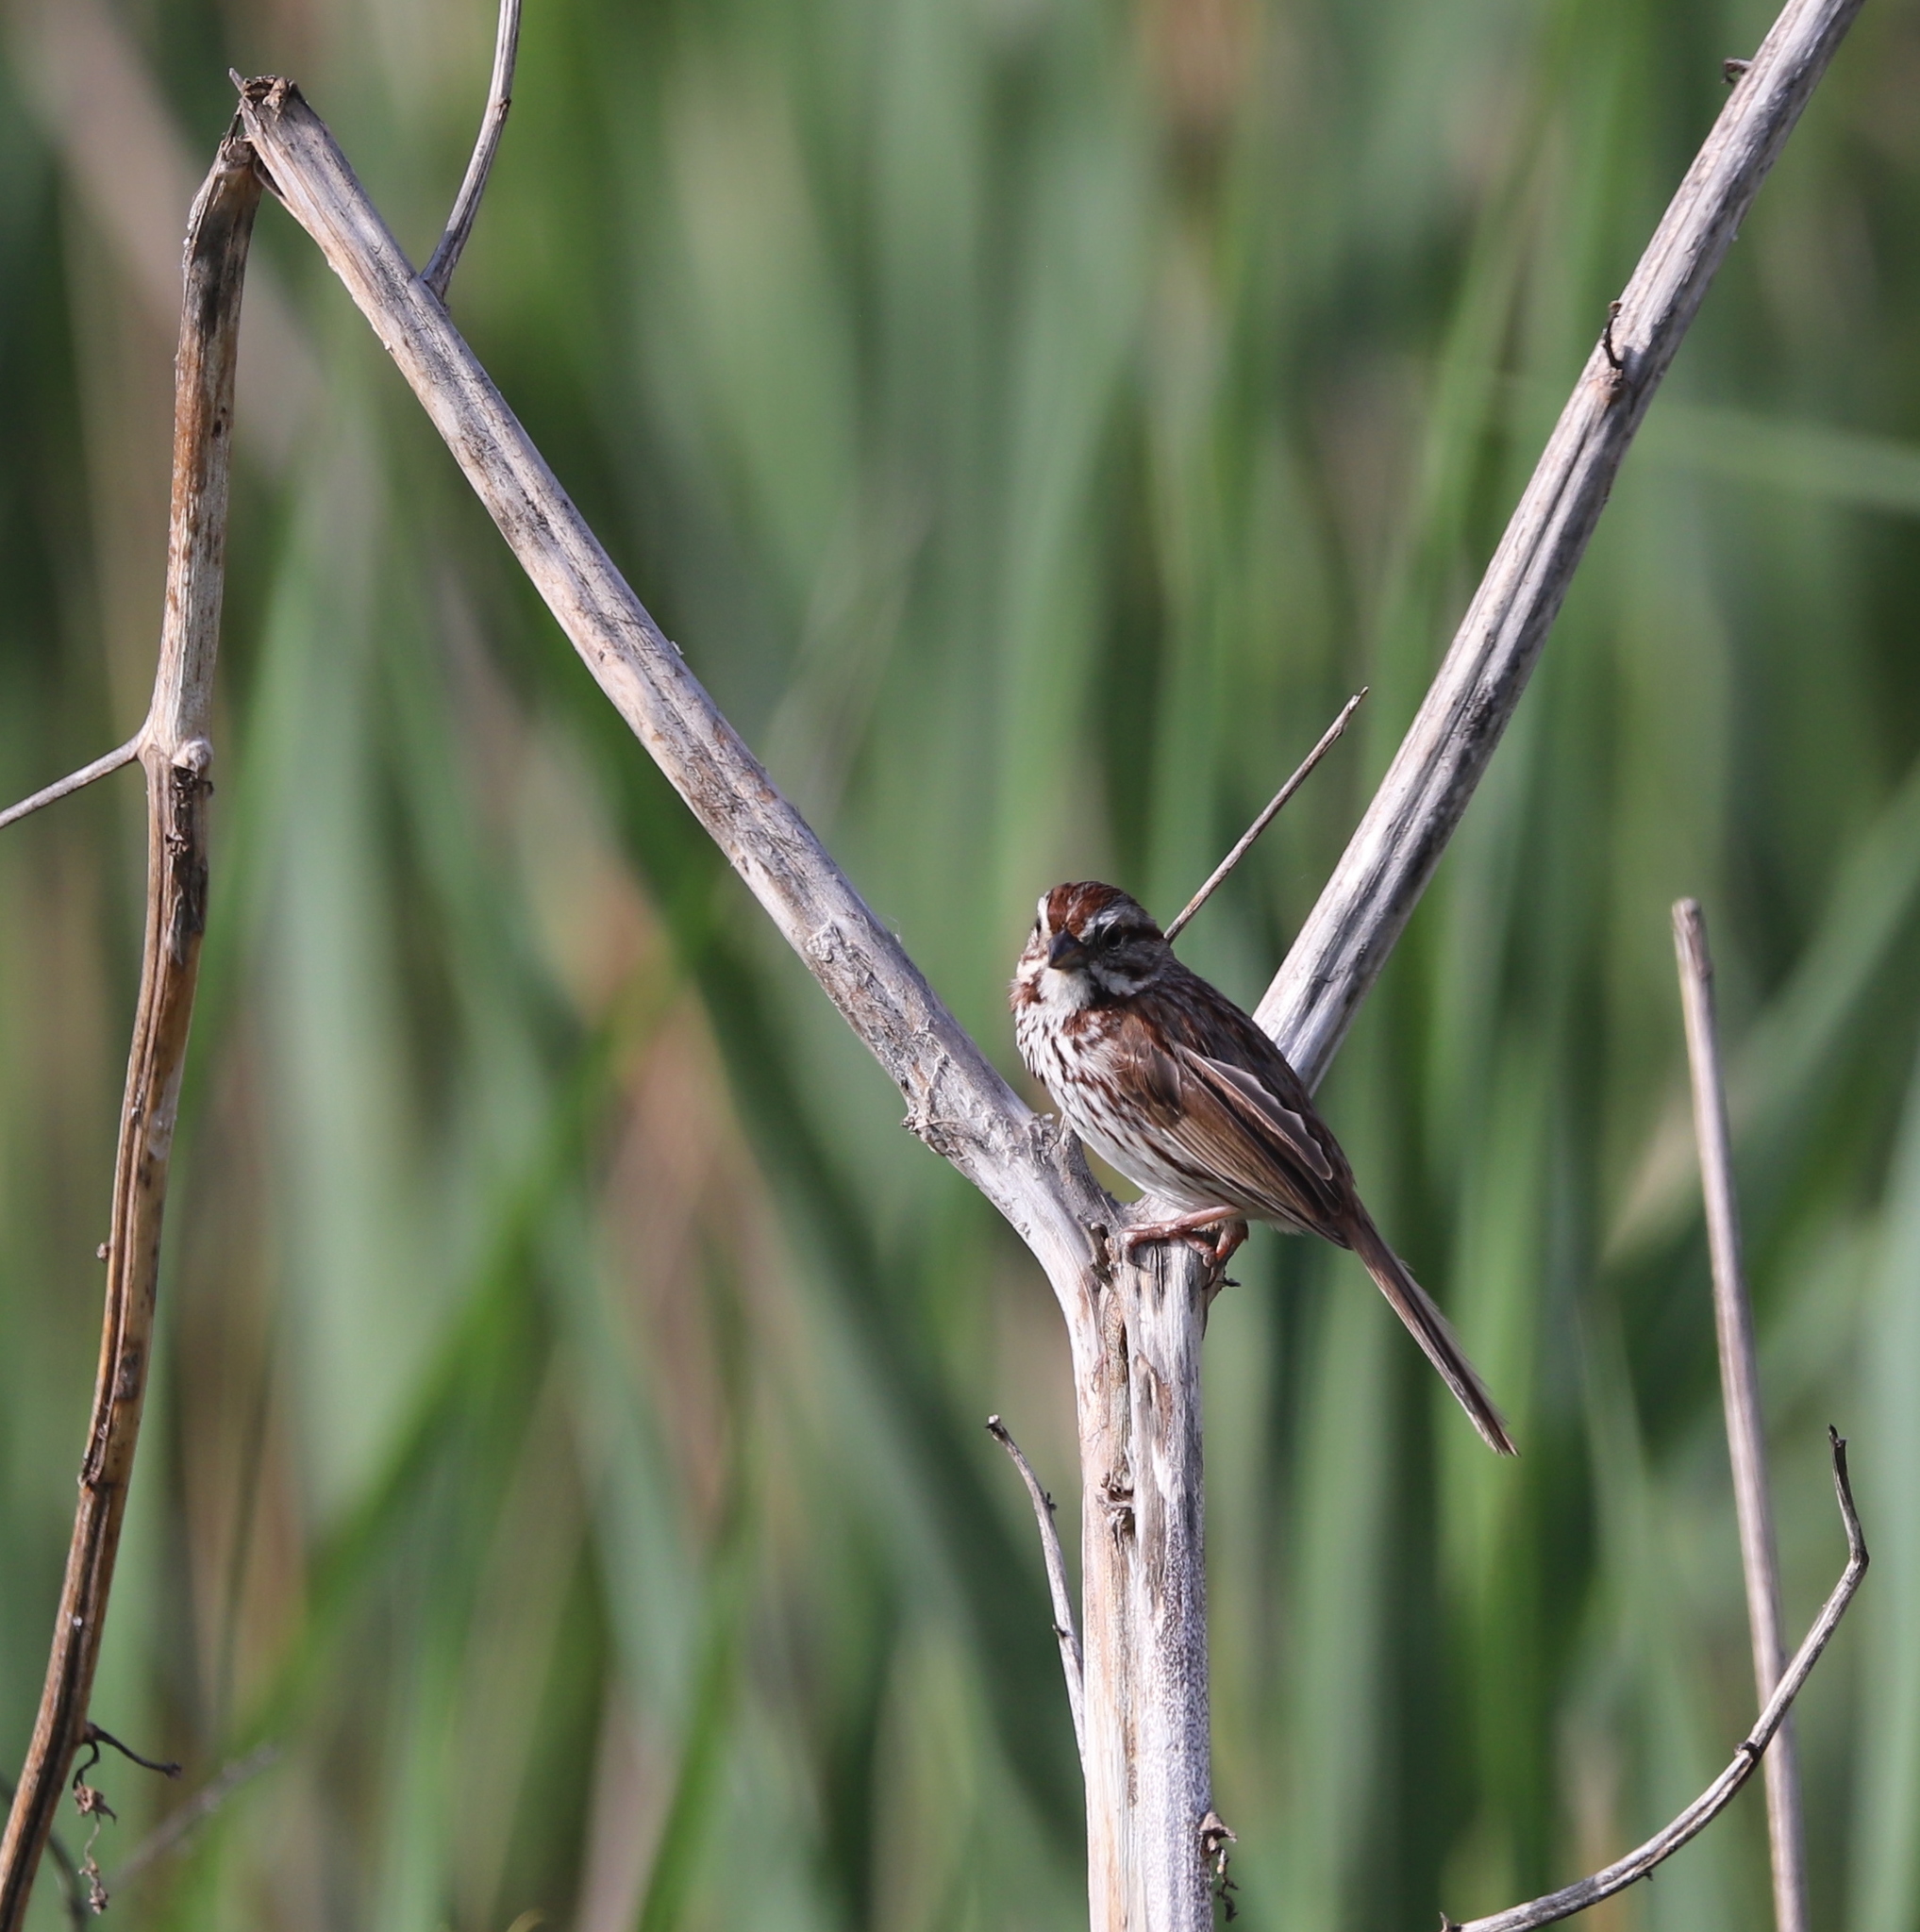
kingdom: Animalia
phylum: Chordata
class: Aves
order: Passeriformes
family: Passerellidae
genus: Melospiza
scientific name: Melospiza melodia
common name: Song sparrow
